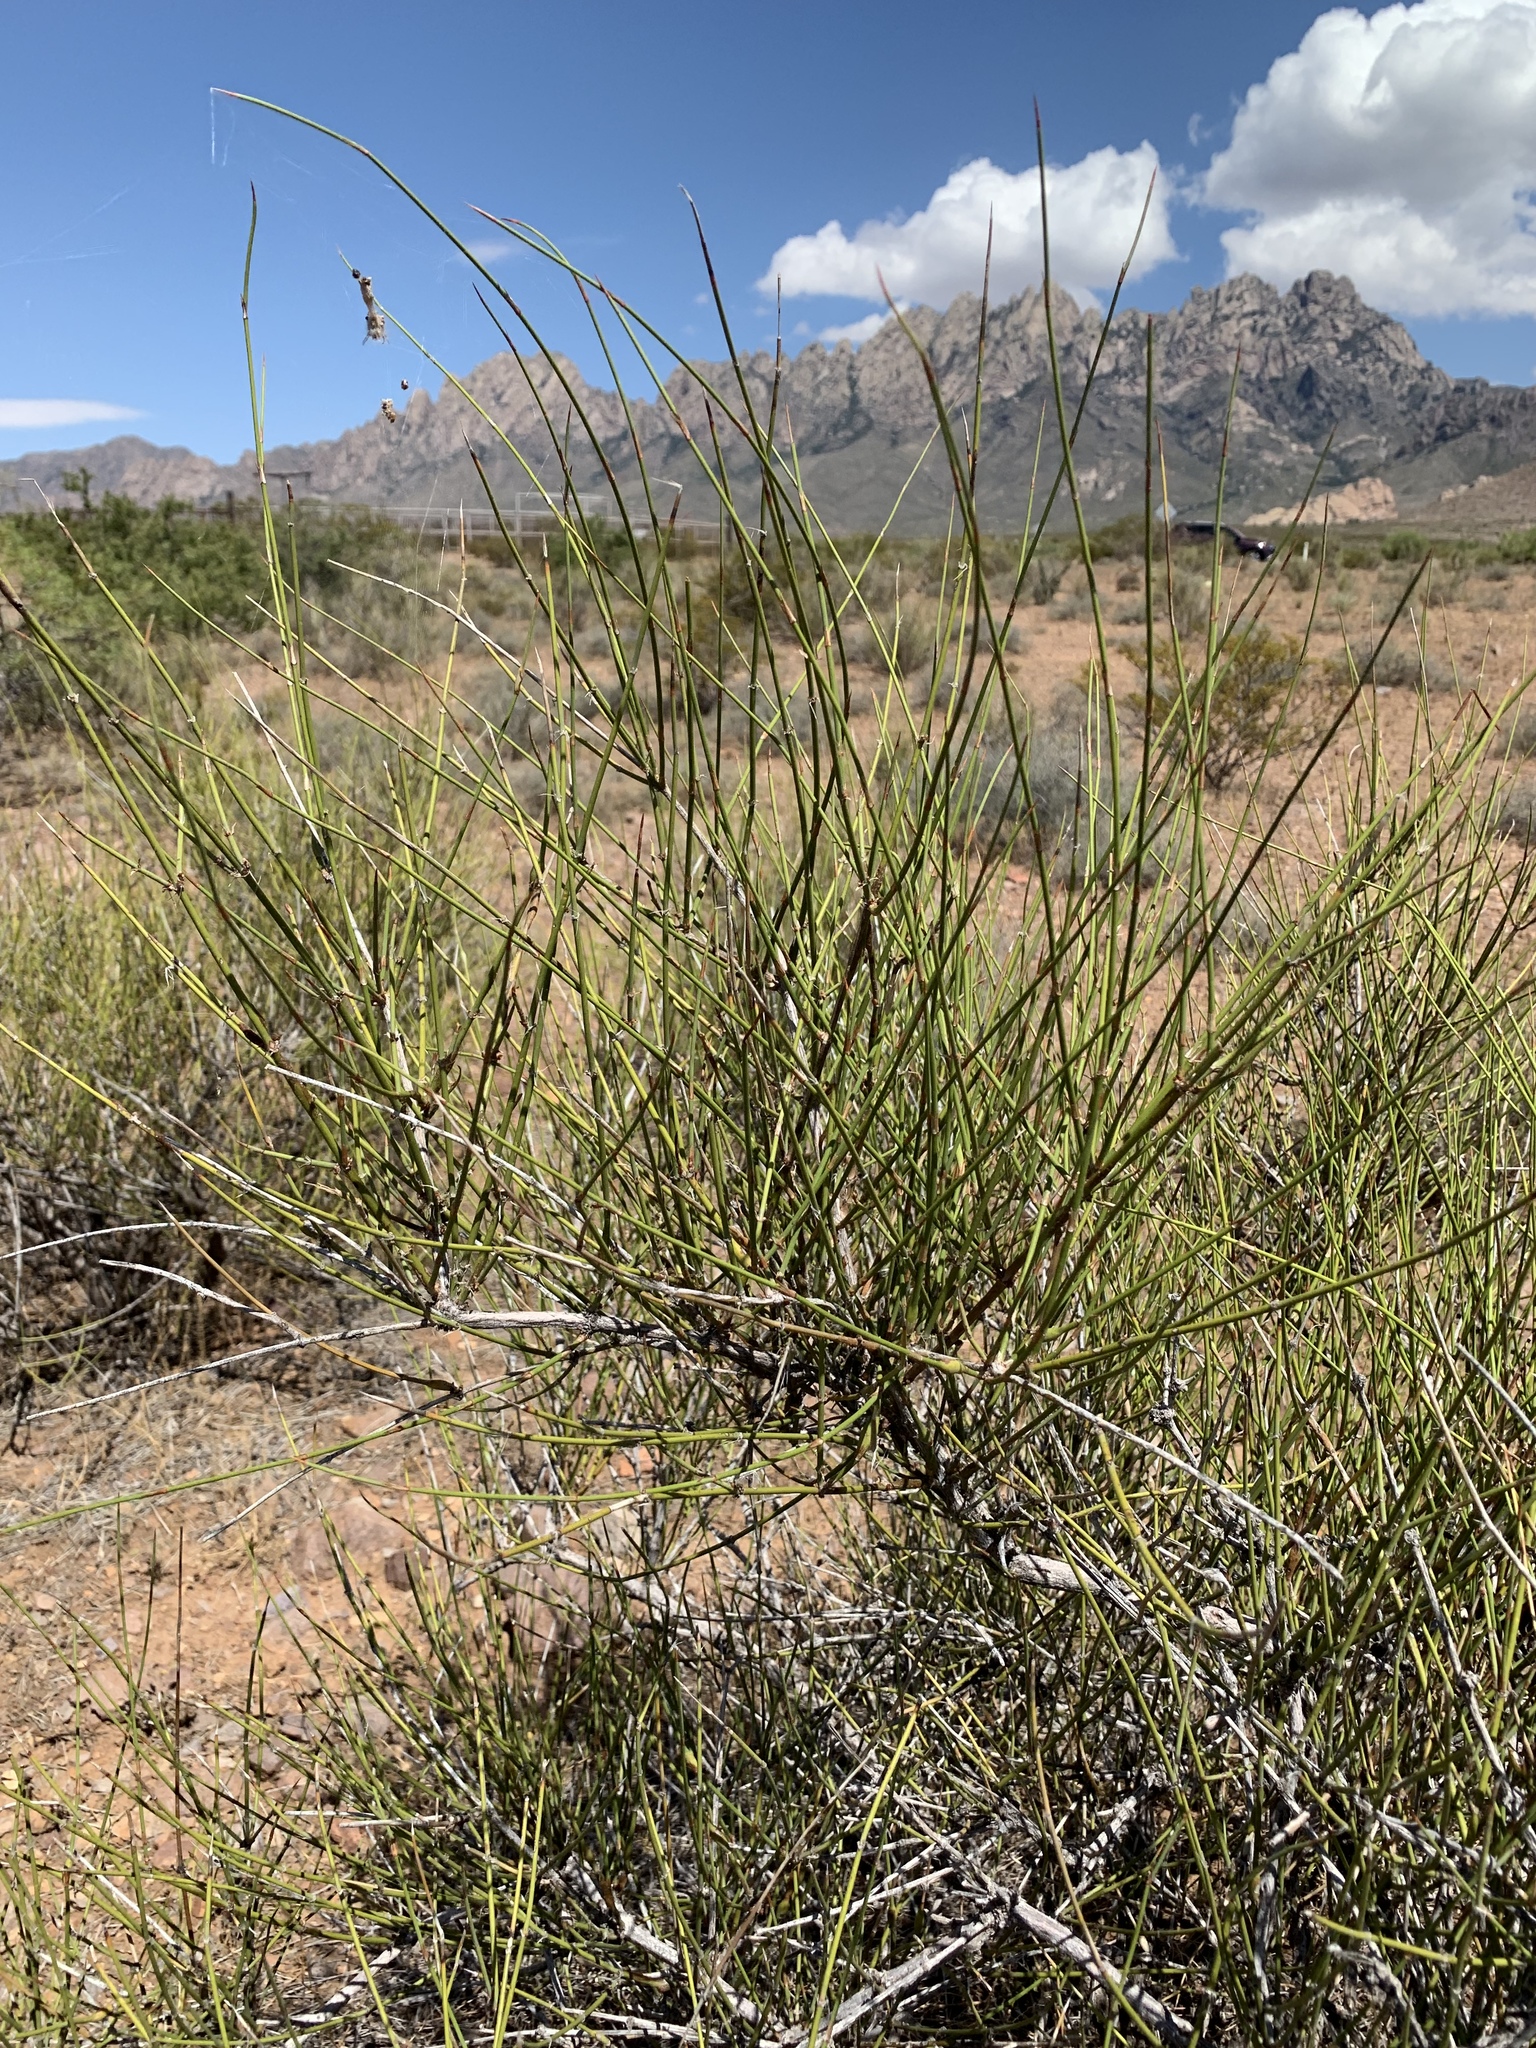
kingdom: Plantae
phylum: Tracheophyta
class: Gnetopsida
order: Ephedrales
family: Ephedraceae
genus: Ephedra
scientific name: Ephedra trifurca
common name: Mexican-tea
